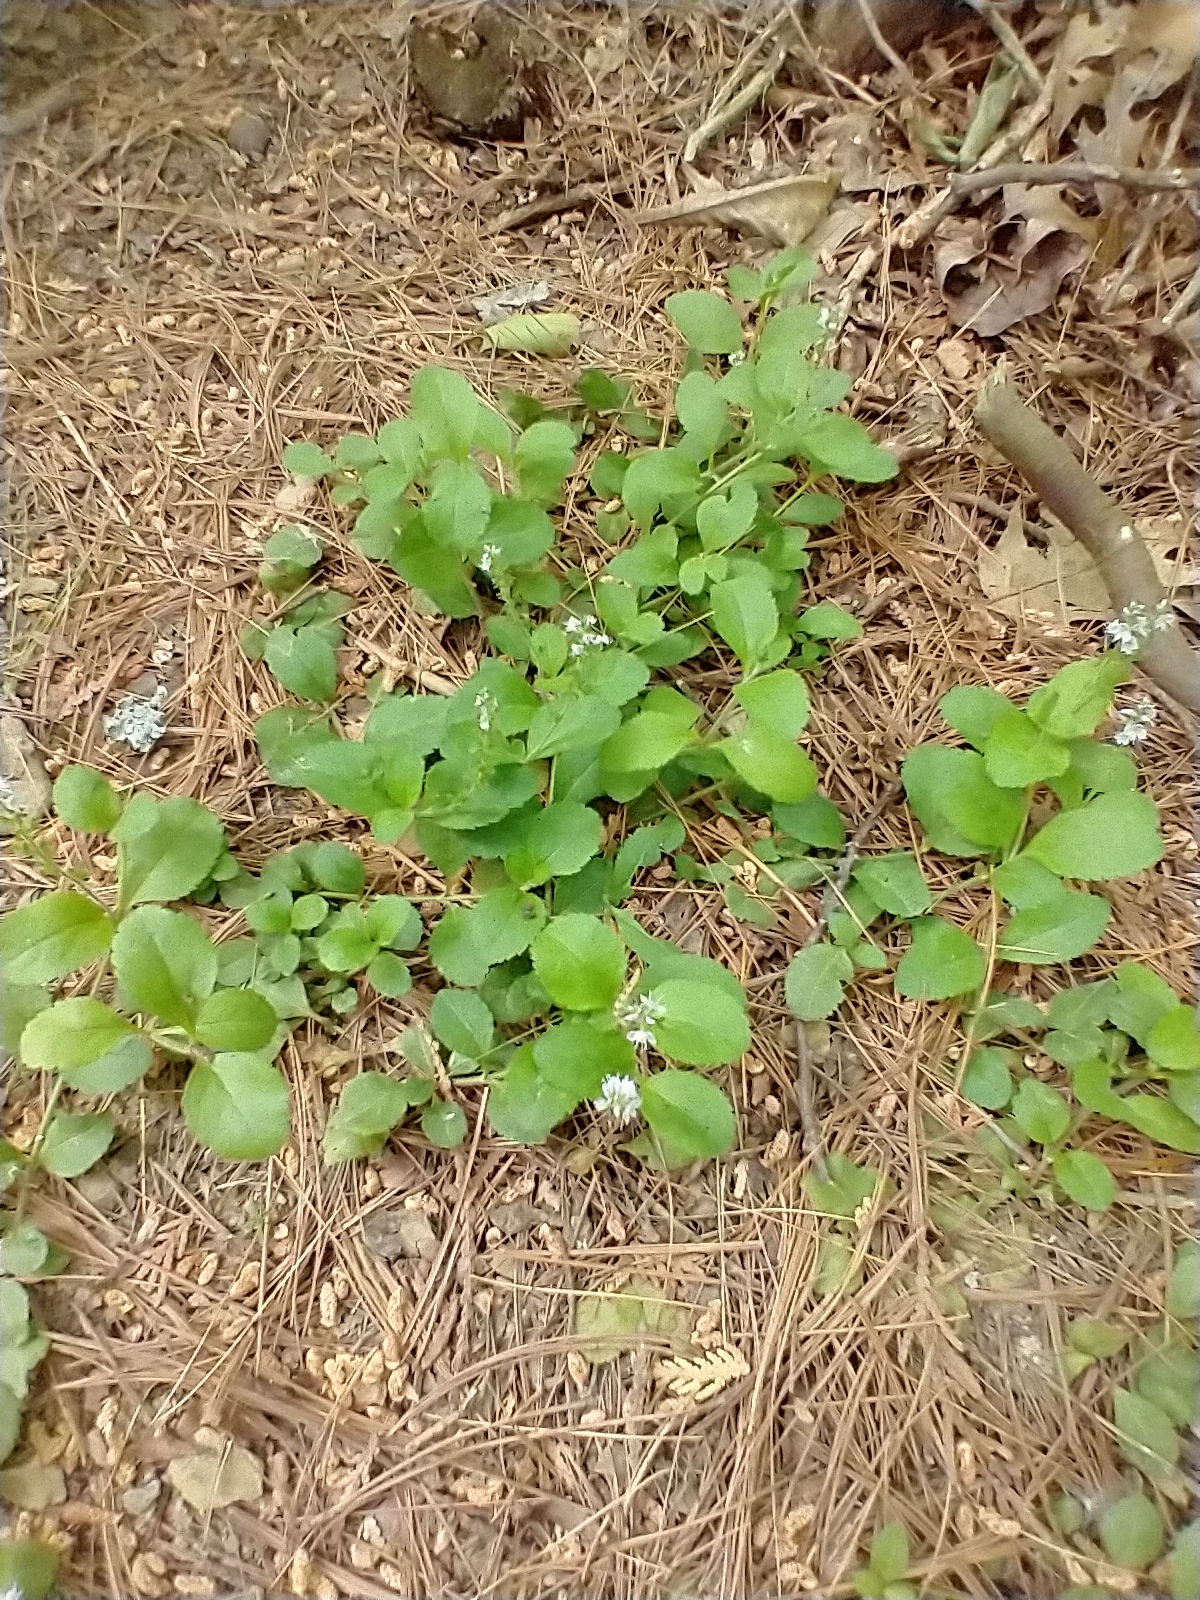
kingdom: Plantae
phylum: Tracheophyta
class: Magnoliopsida
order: Lamiales
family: Plantaginaceae
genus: Veronica
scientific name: Veronica officinalis
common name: Common speedwell
